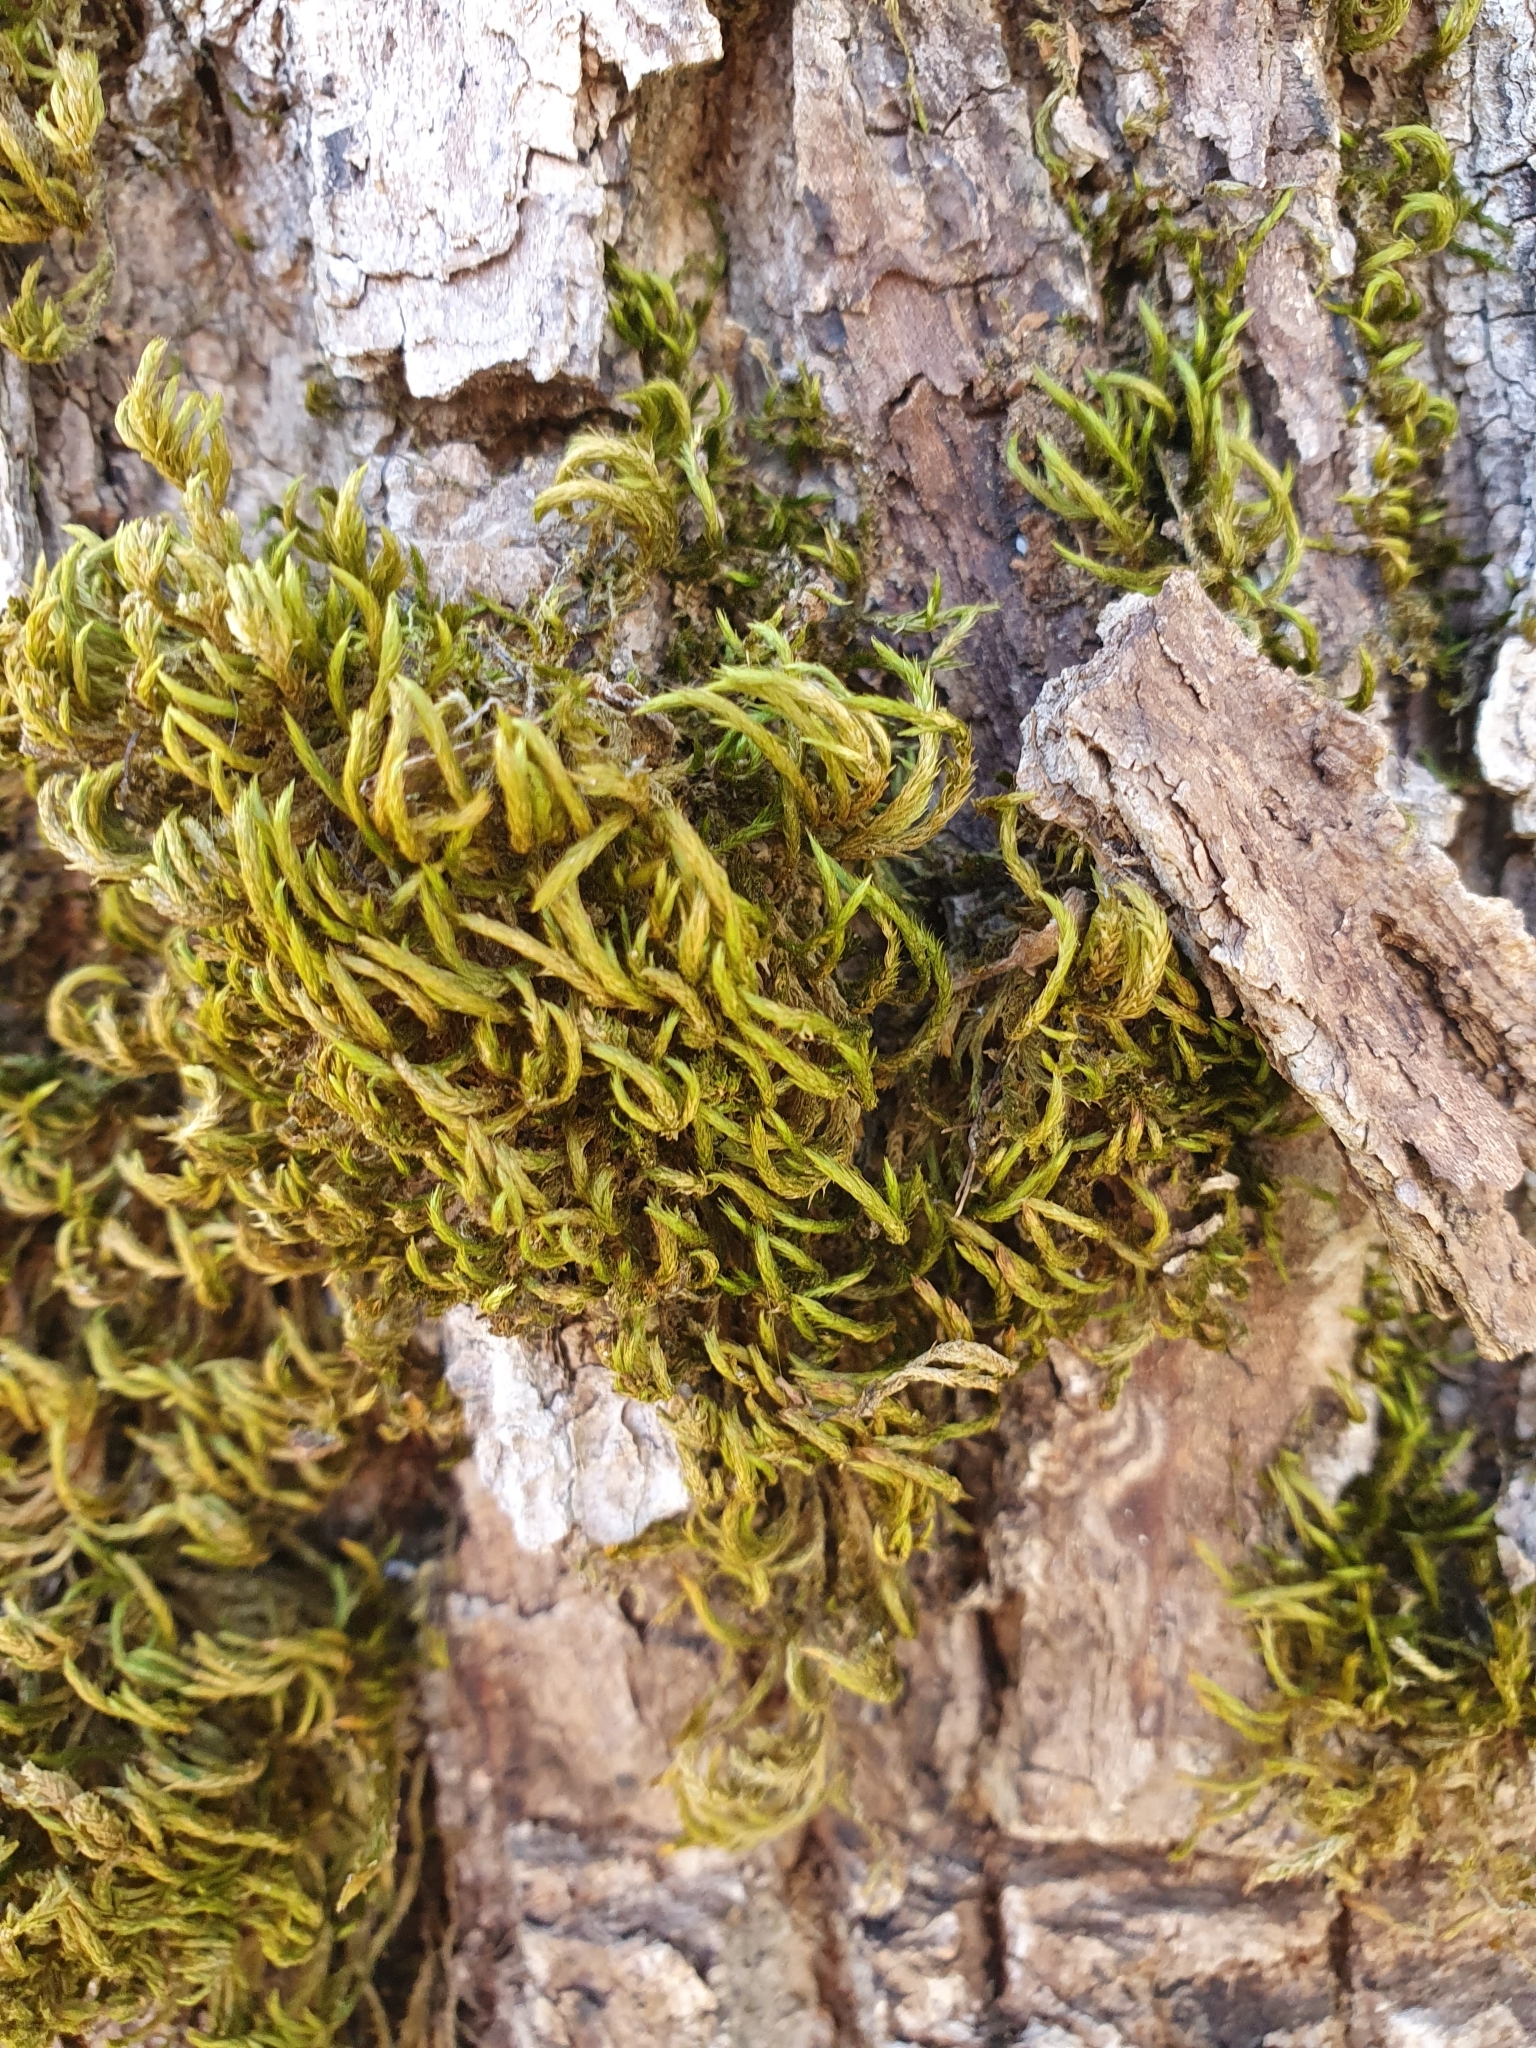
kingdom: Plantae
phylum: Bryophyta
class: Bryopsida
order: Hypnales
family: Leucodontaceae
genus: Leucodon
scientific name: Leucodon sciuroides
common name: Squirrel-tail moss
